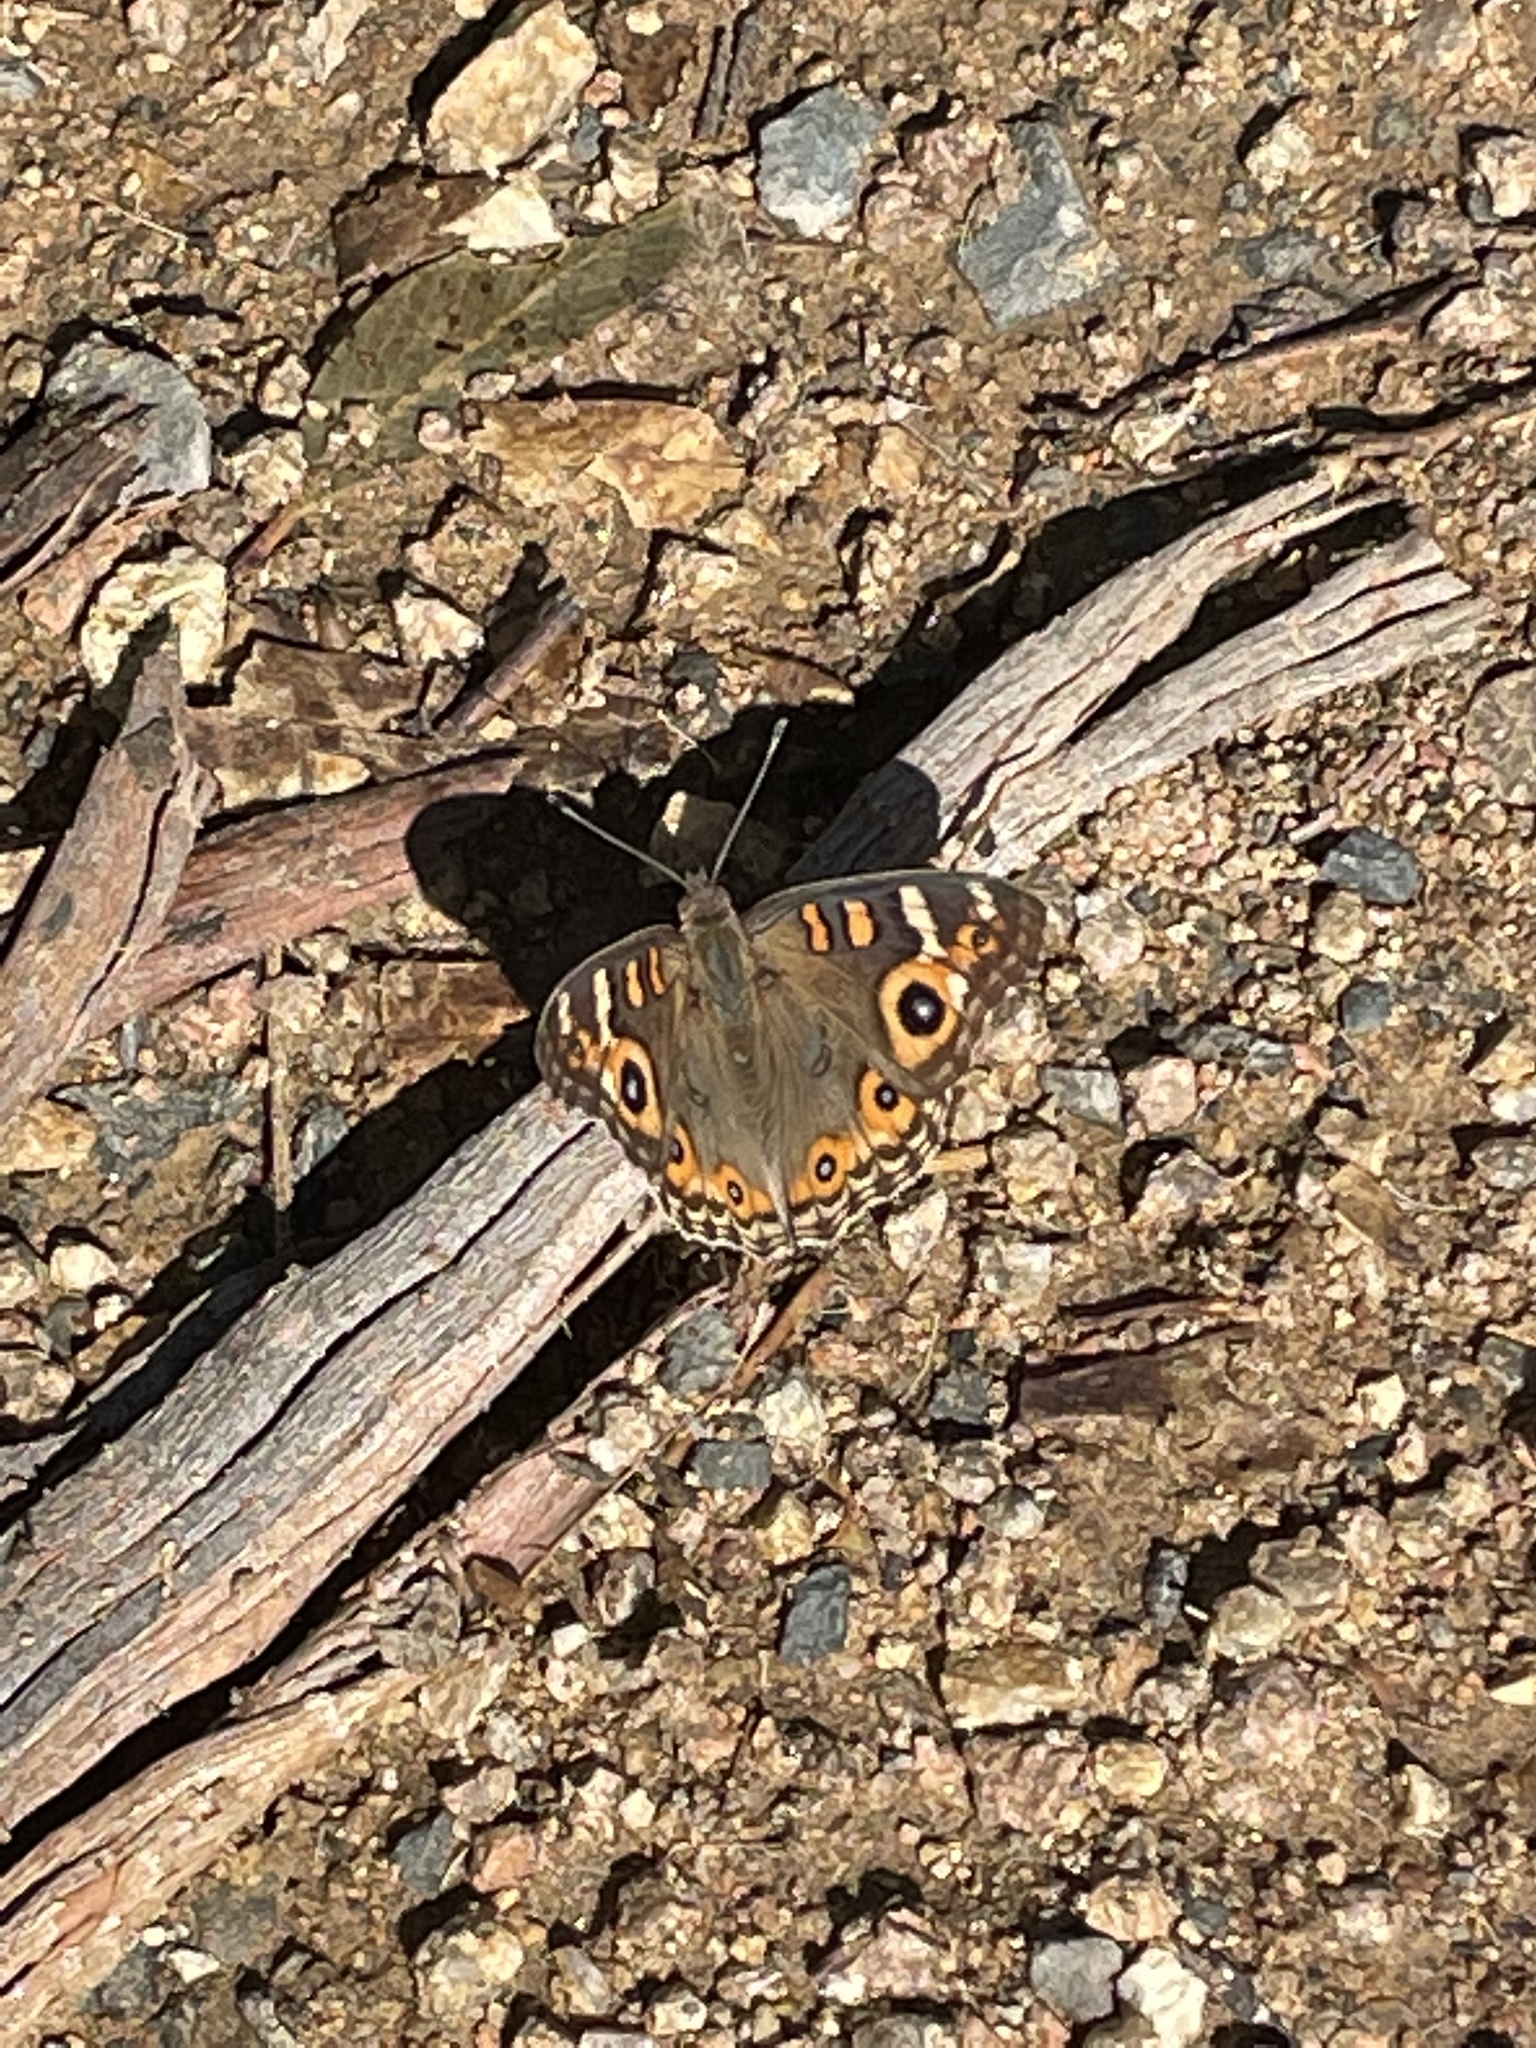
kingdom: Animalia
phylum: Arthropoda
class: Insecta
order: Lepidoptera
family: Nymphalidae
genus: Junonia
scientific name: Junonia villida
